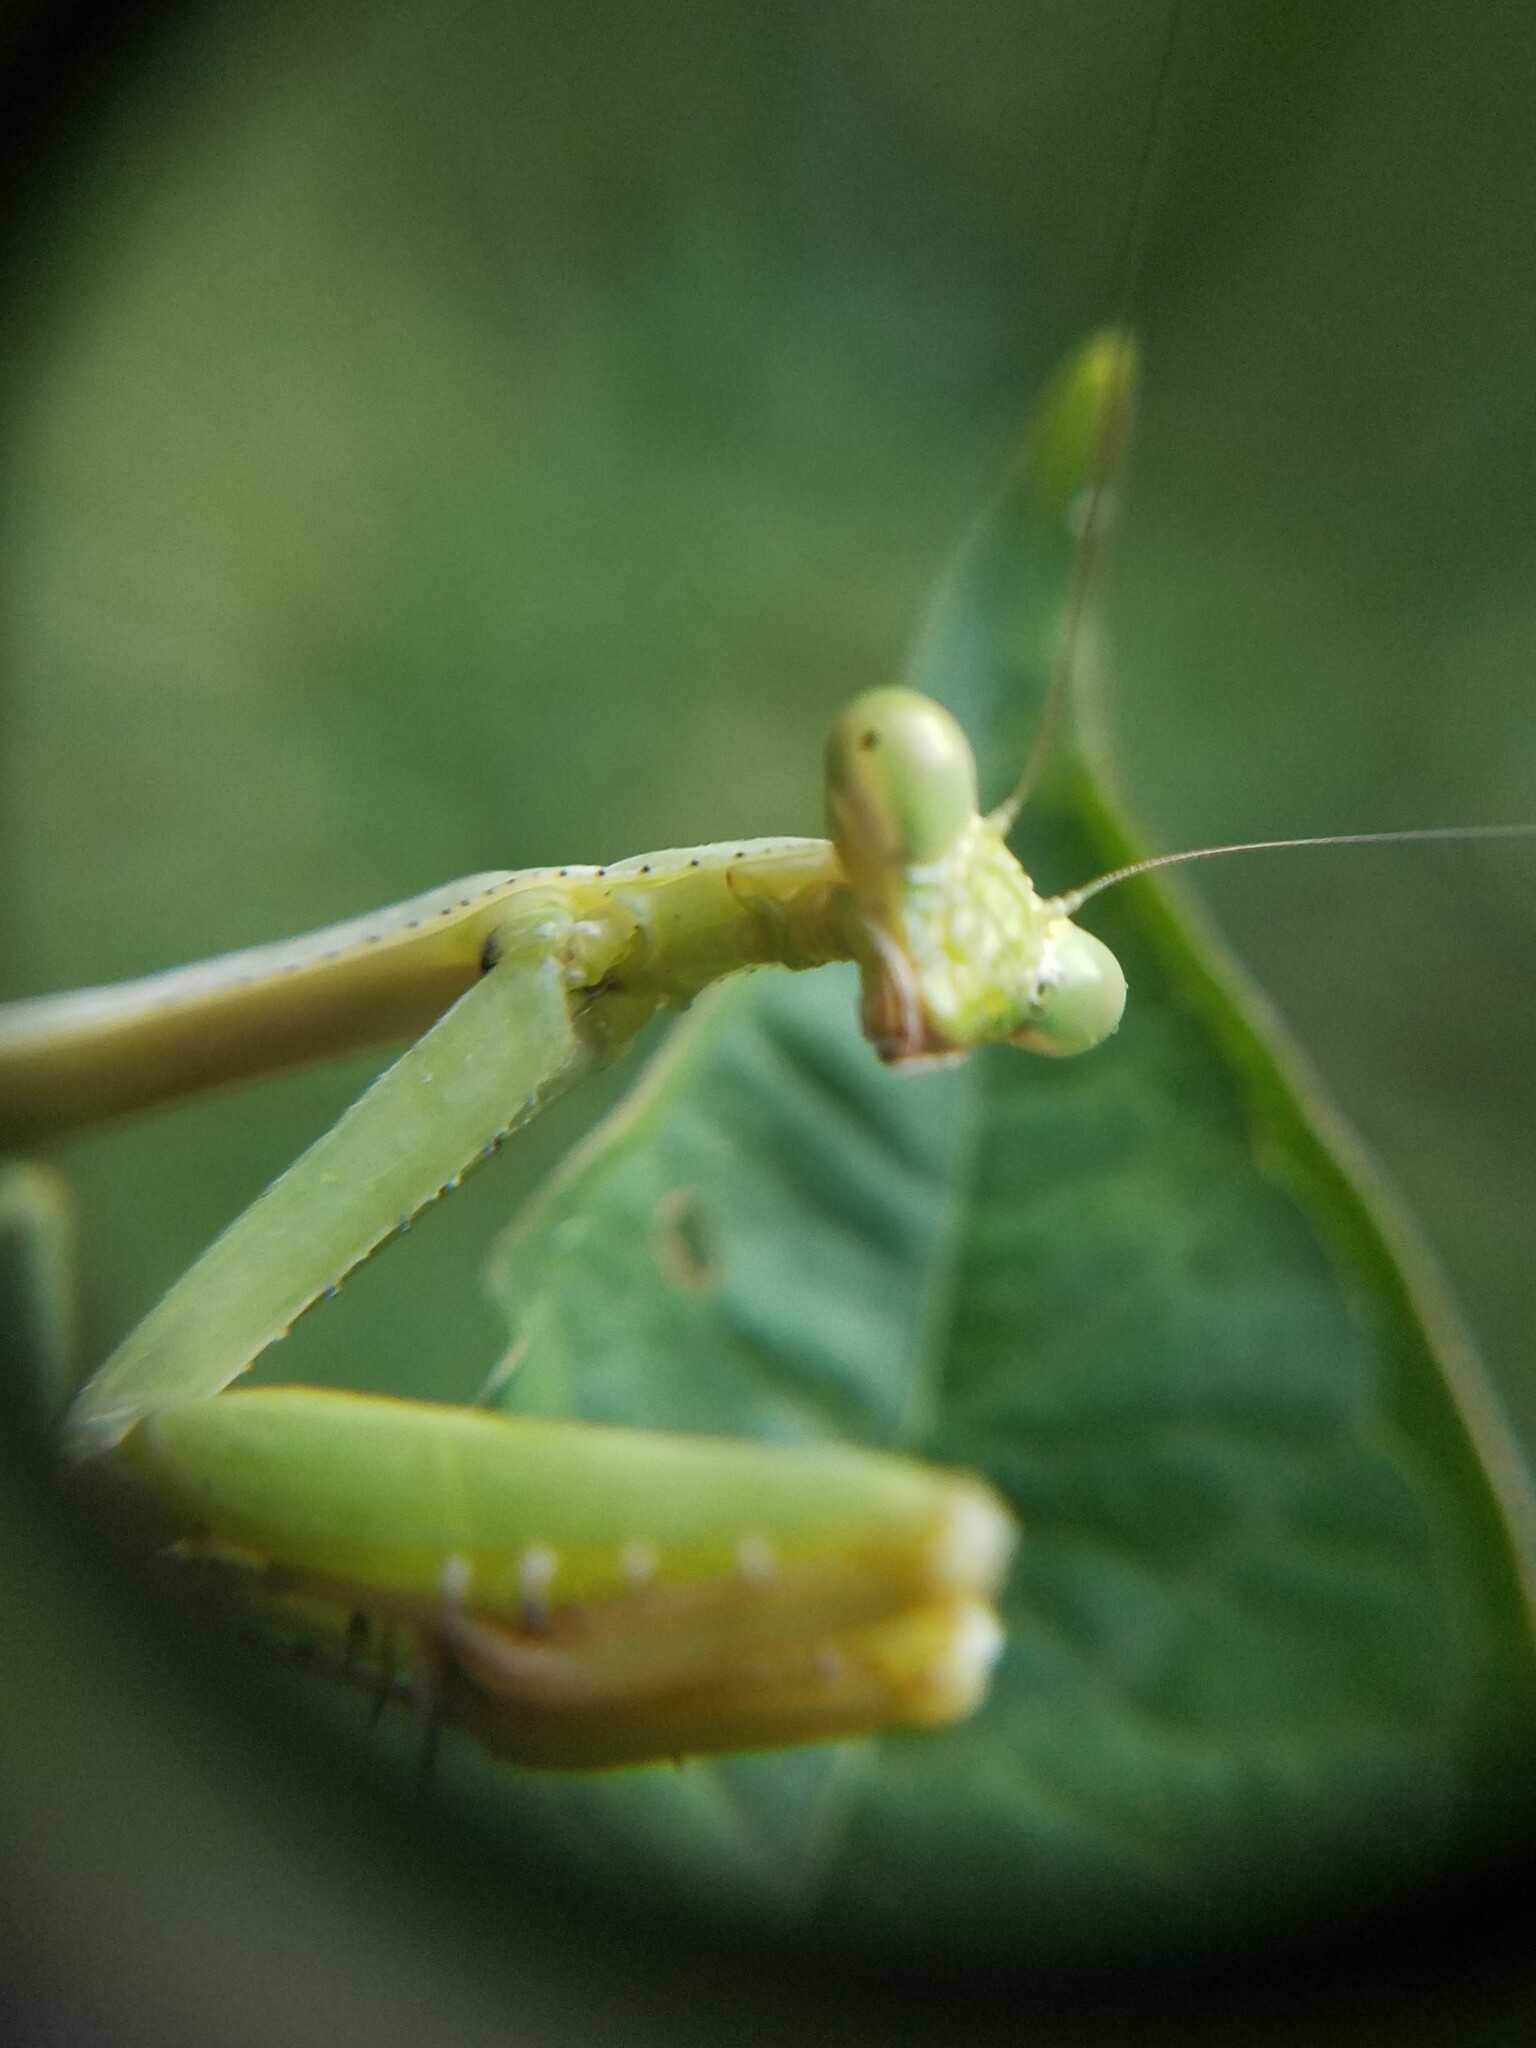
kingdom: Animalia
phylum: Arthropoda
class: Insecta
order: Mantodea
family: Mantidae
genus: Stagmomantis
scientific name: Stagmomantis carolina
